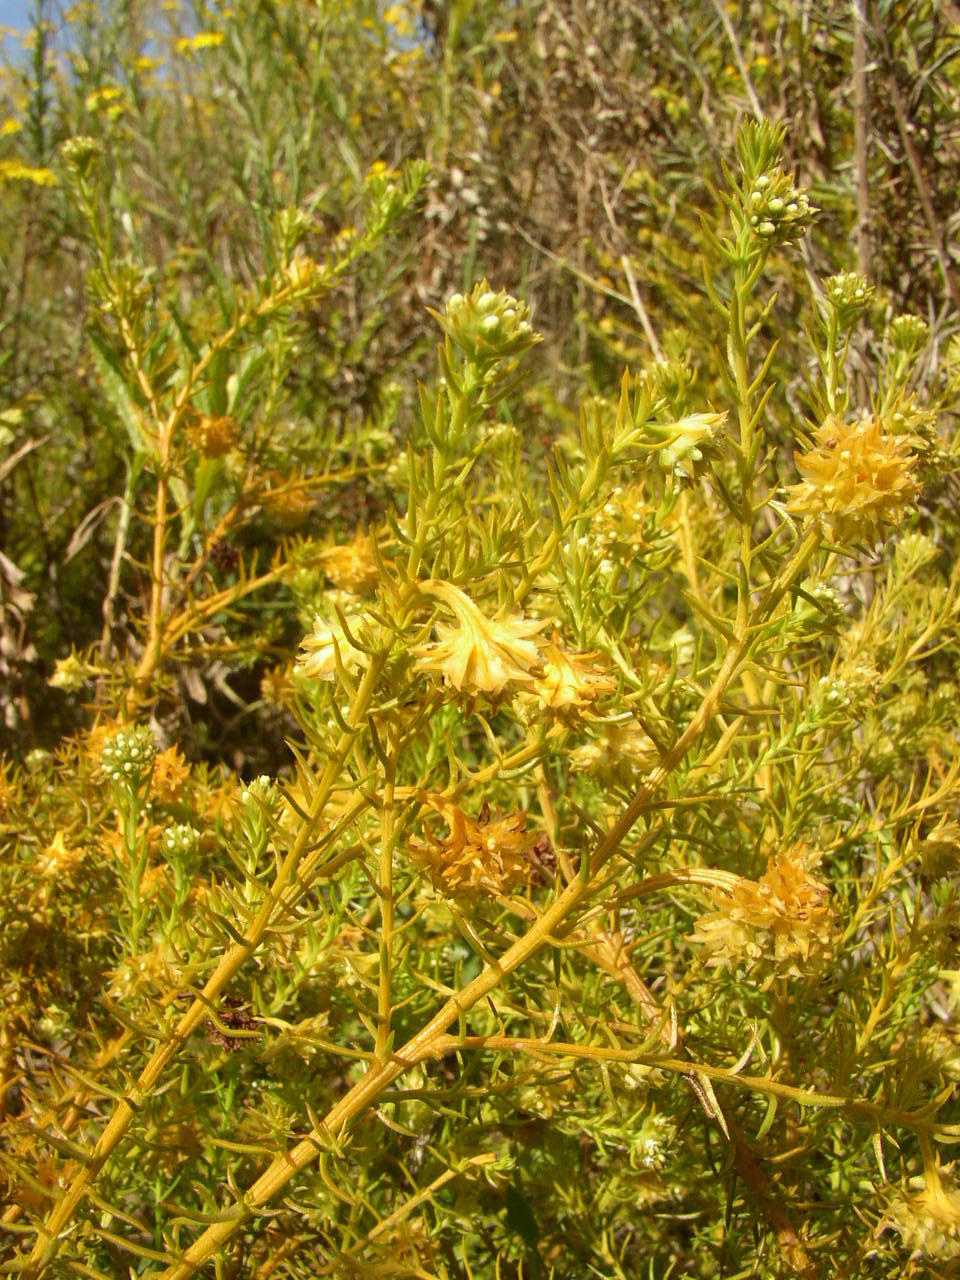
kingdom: Plantae
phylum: Tracheophyta
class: Magnoliopsida
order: Santalales
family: Thesiaceae
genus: Thesium
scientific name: Thesium scabrum
